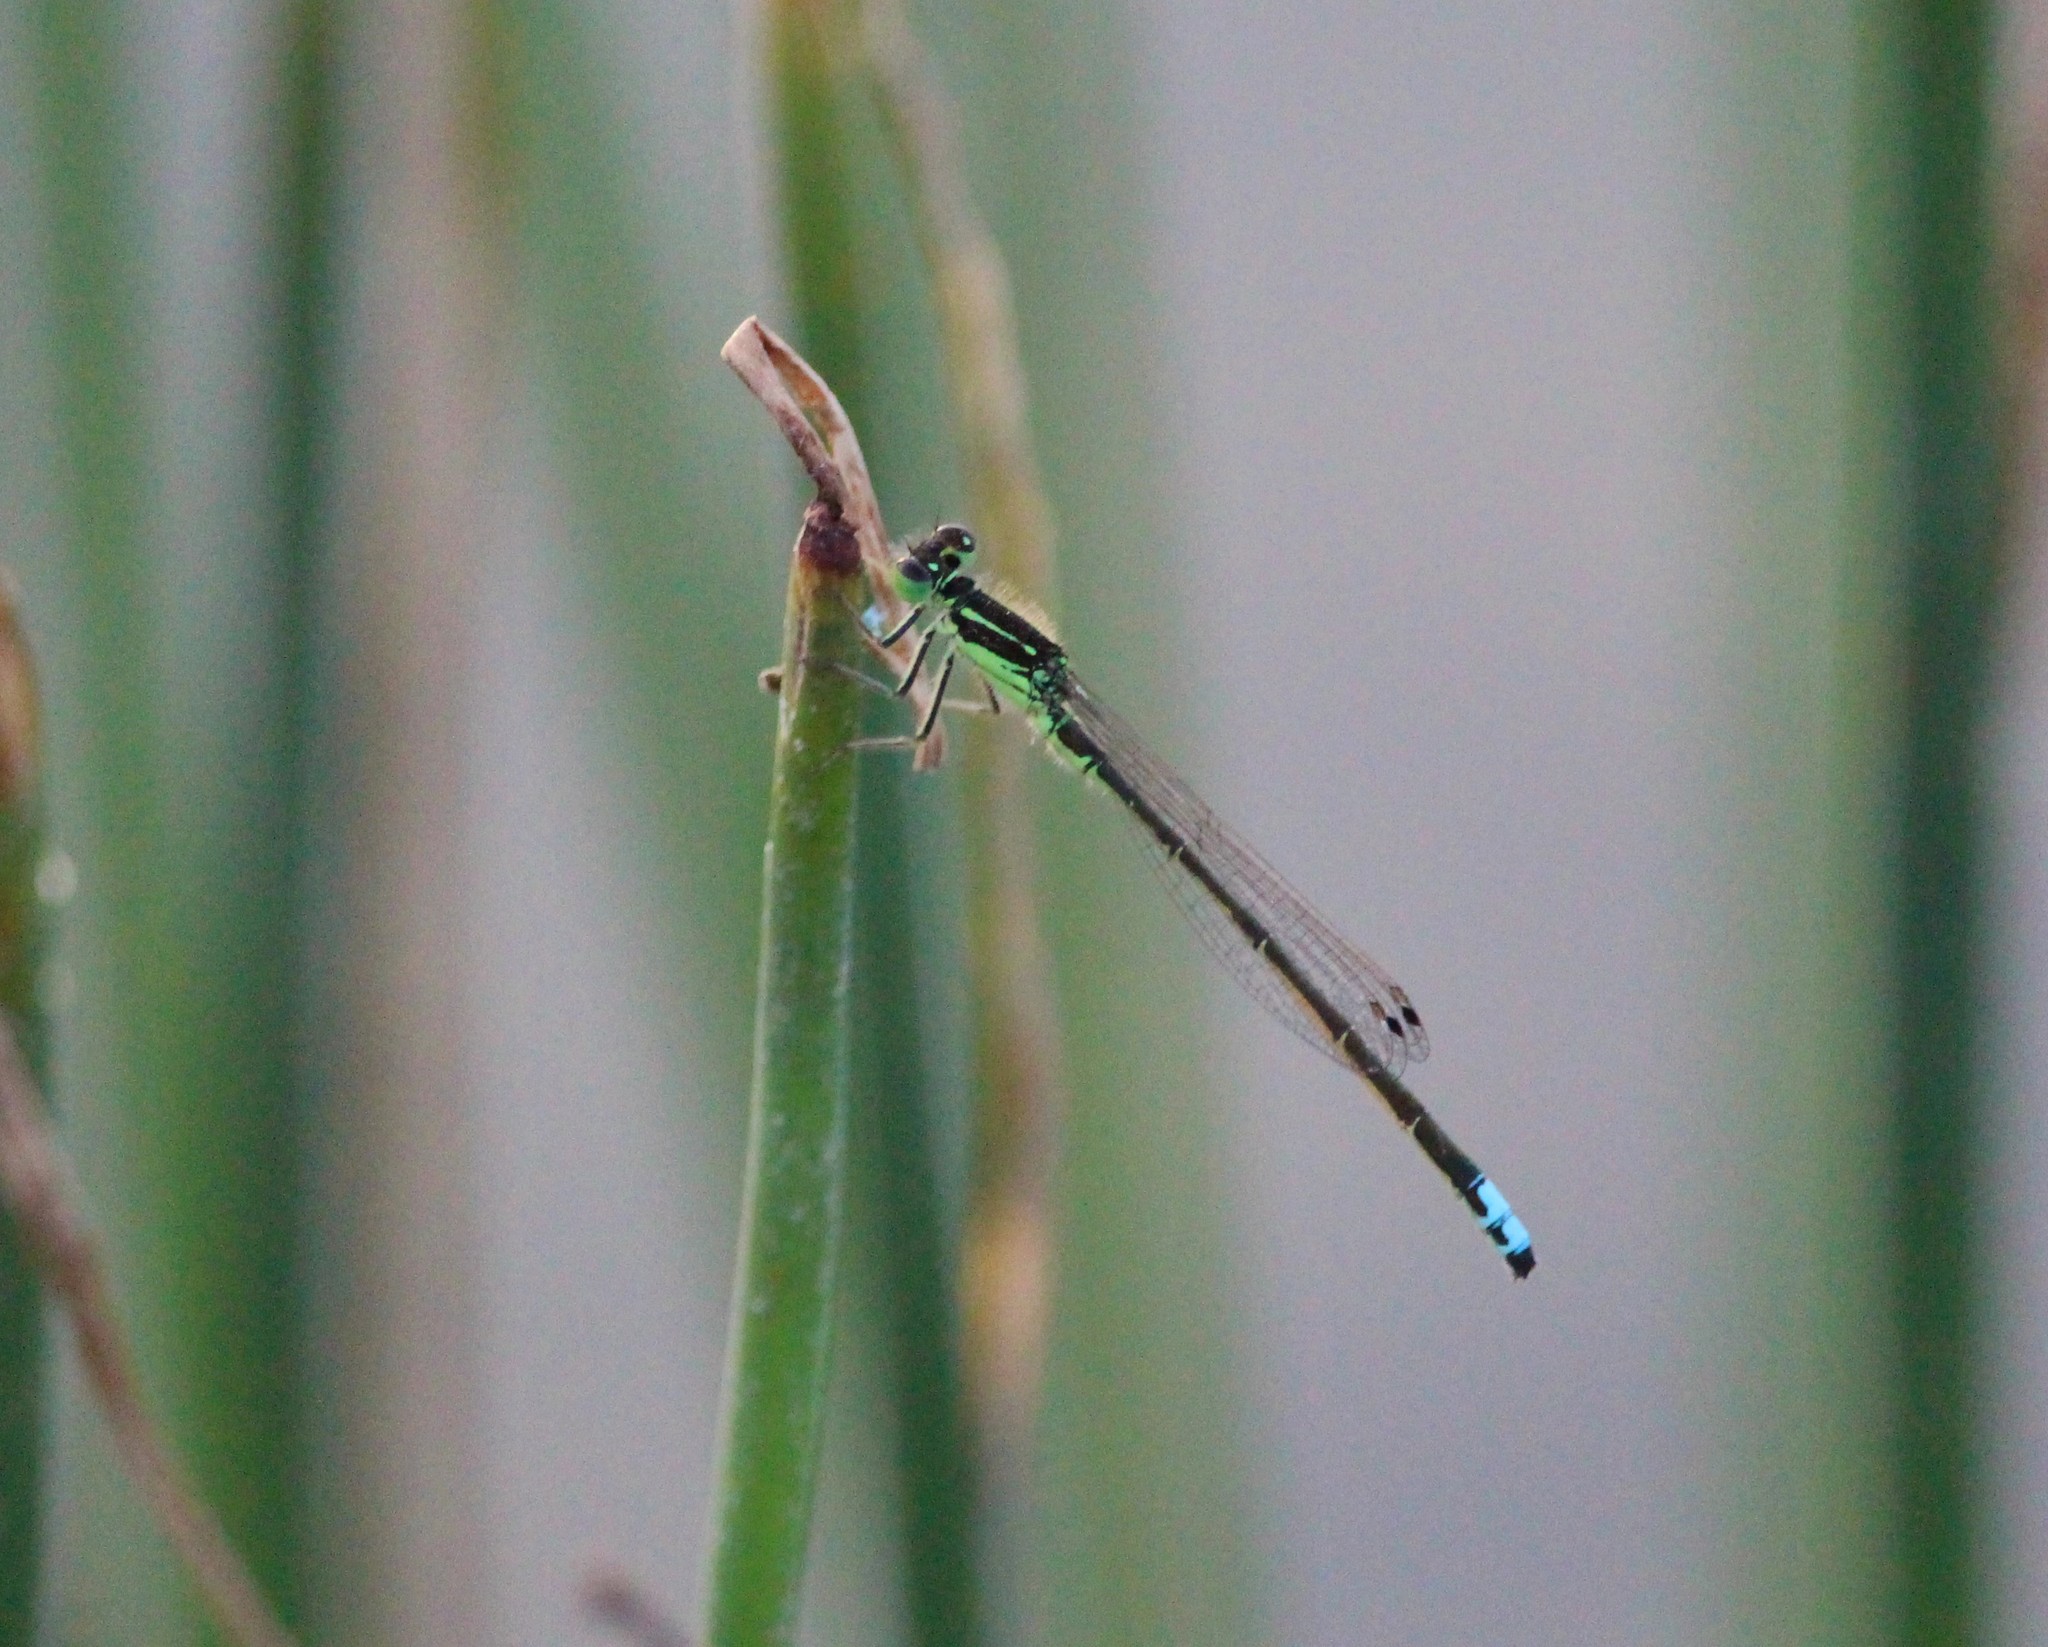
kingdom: Animalia
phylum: Arthropoda
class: Insecta
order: Odonata
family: Coenagrionidae
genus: Ischnura
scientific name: Ischnura verticalis
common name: Eastern forktail
